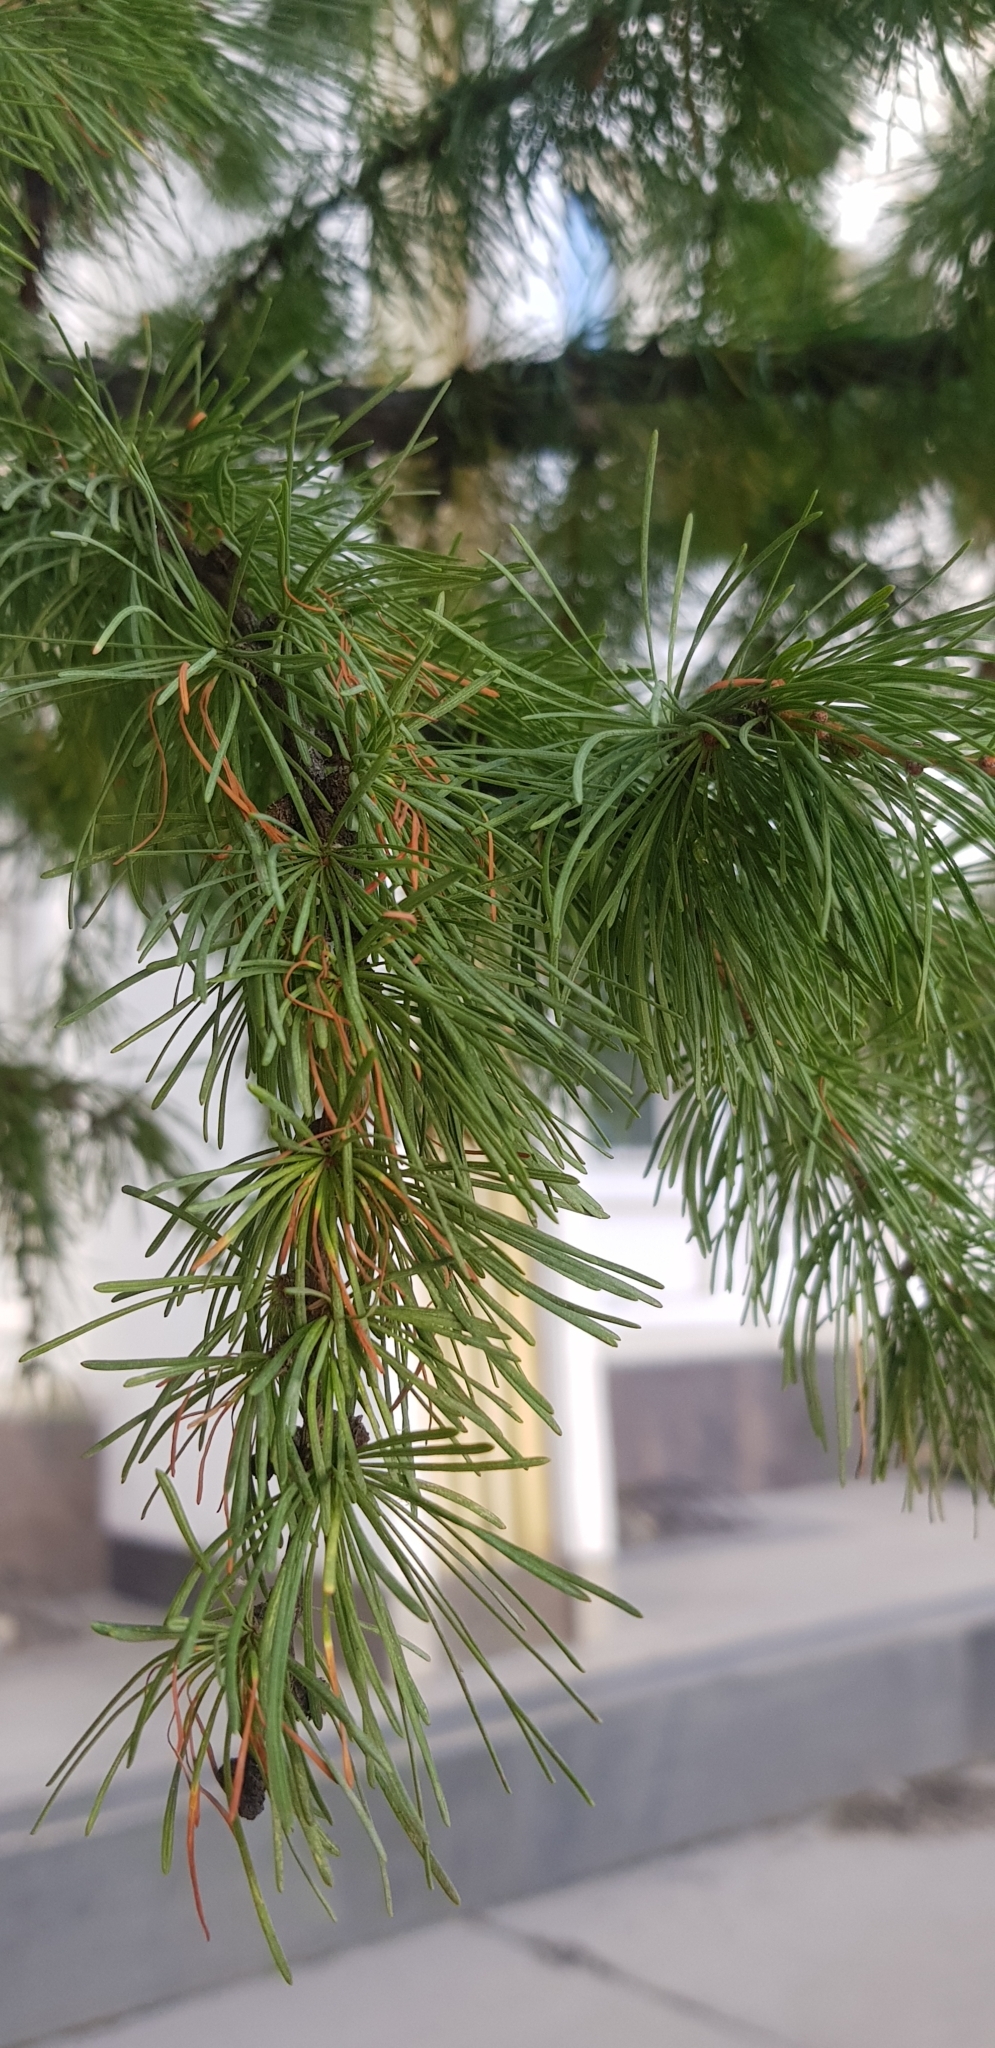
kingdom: Plantae
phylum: Tracheophyta
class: Pinopsida
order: Pinales
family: Pinaceae
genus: Larix
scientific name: Larix sibirica
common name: Siberian larch
